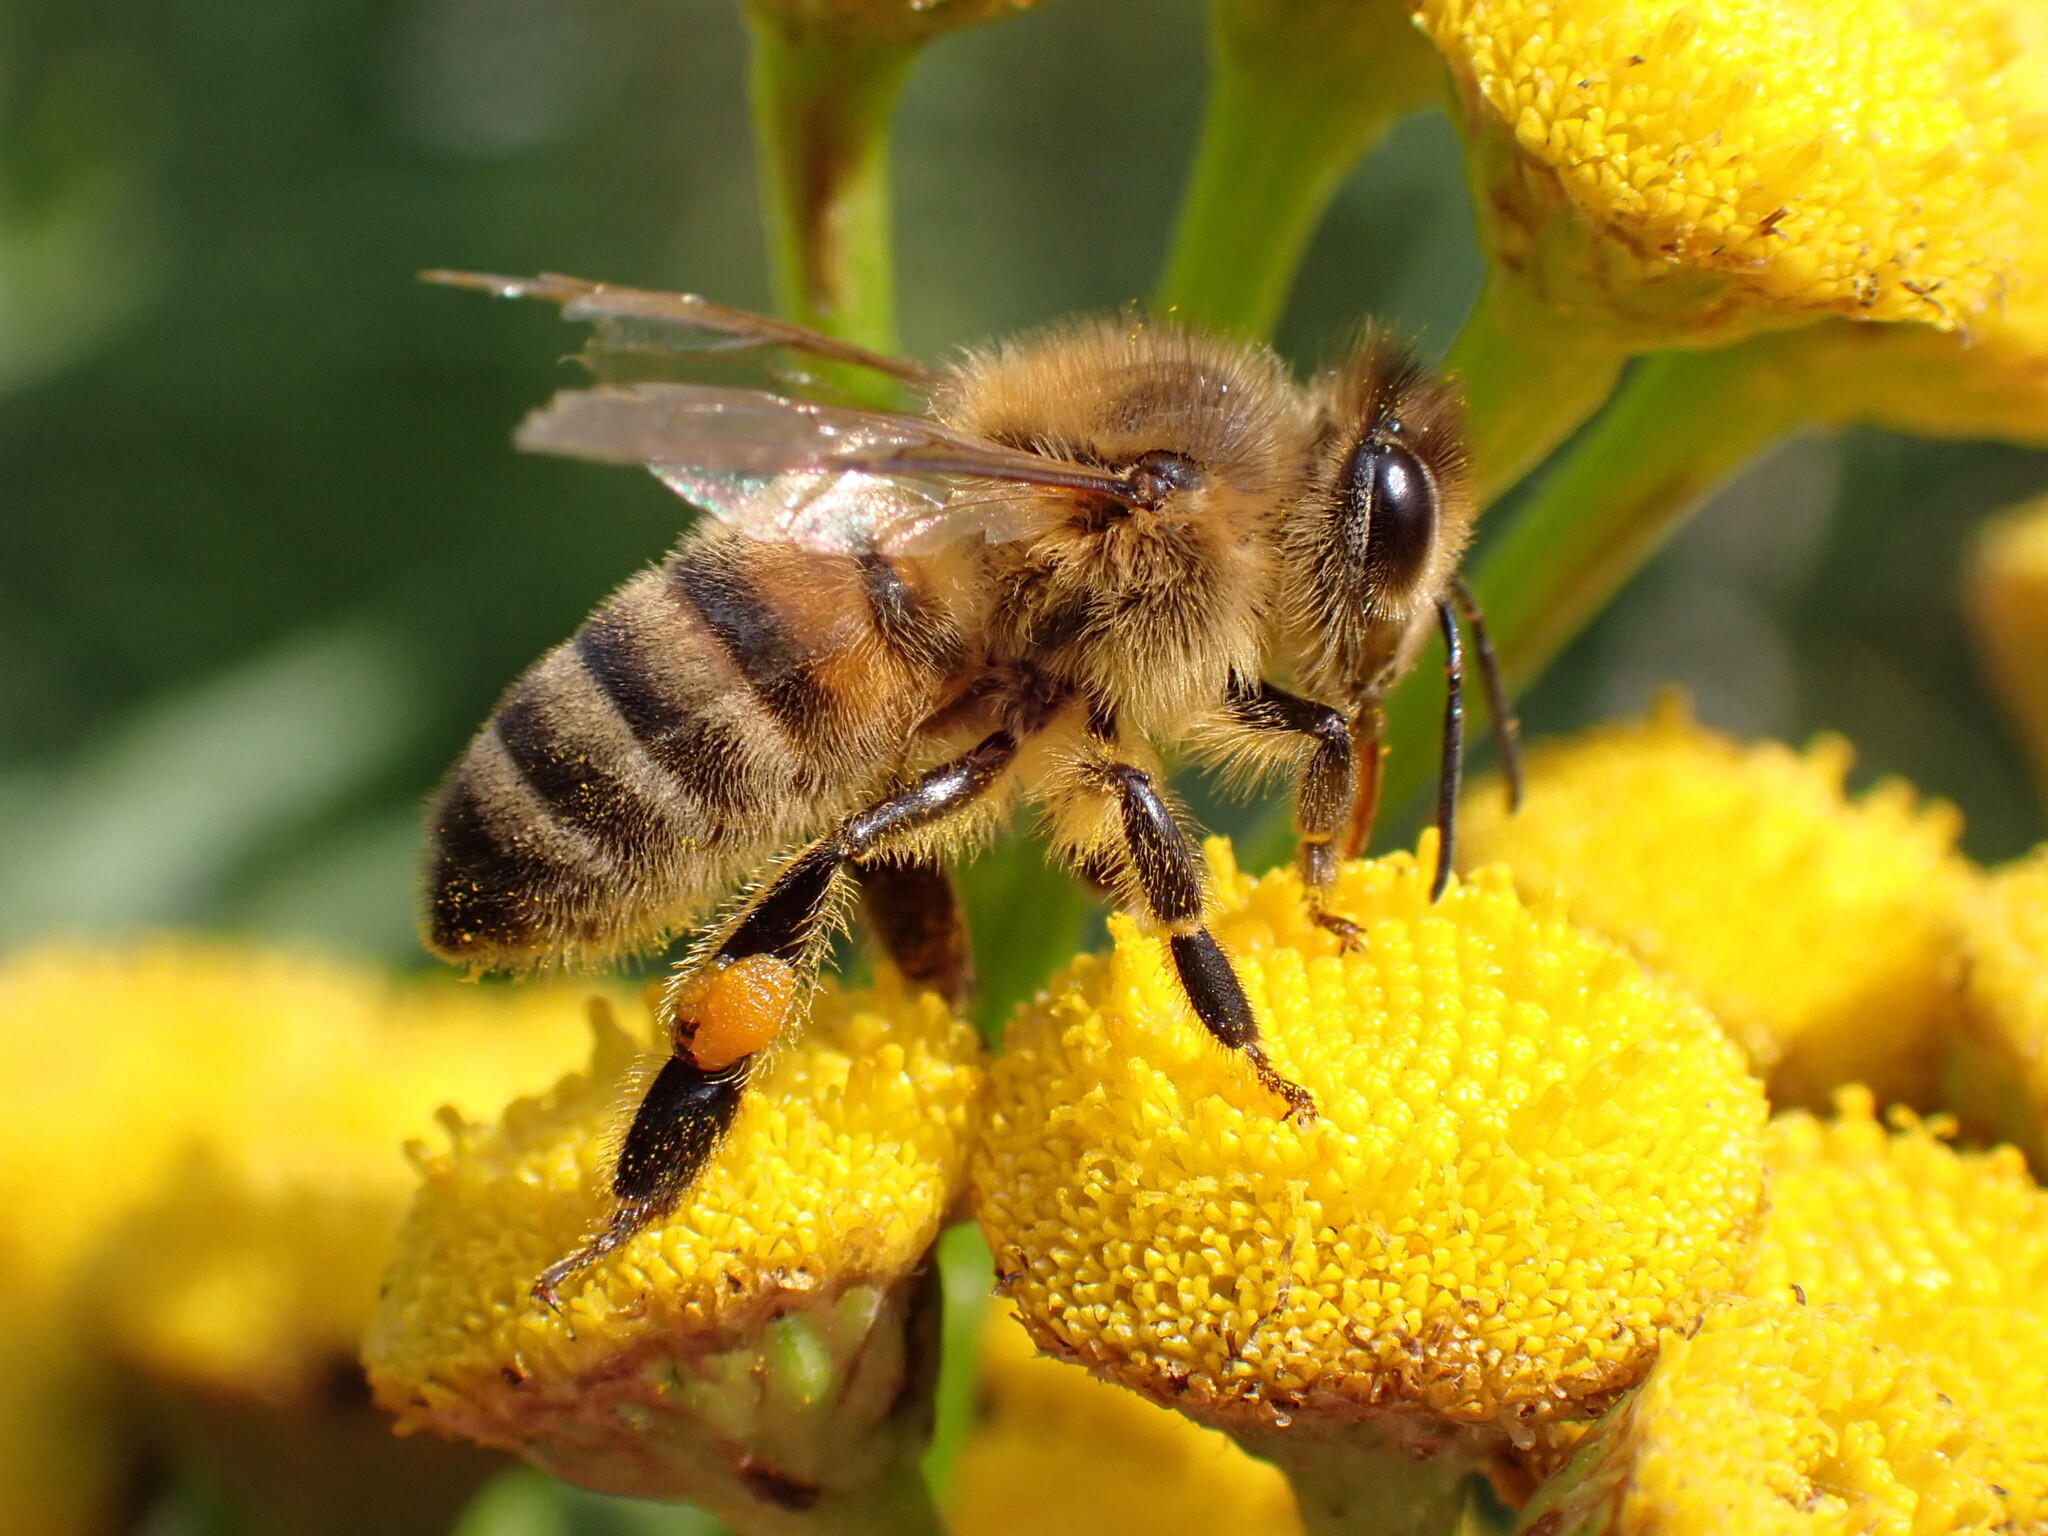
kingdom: Animalia
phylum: Arthropoda
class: Insecta
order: Hymenoptera
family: Apidae
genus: Apis
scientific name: Apis mellifera
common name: Honey bee
